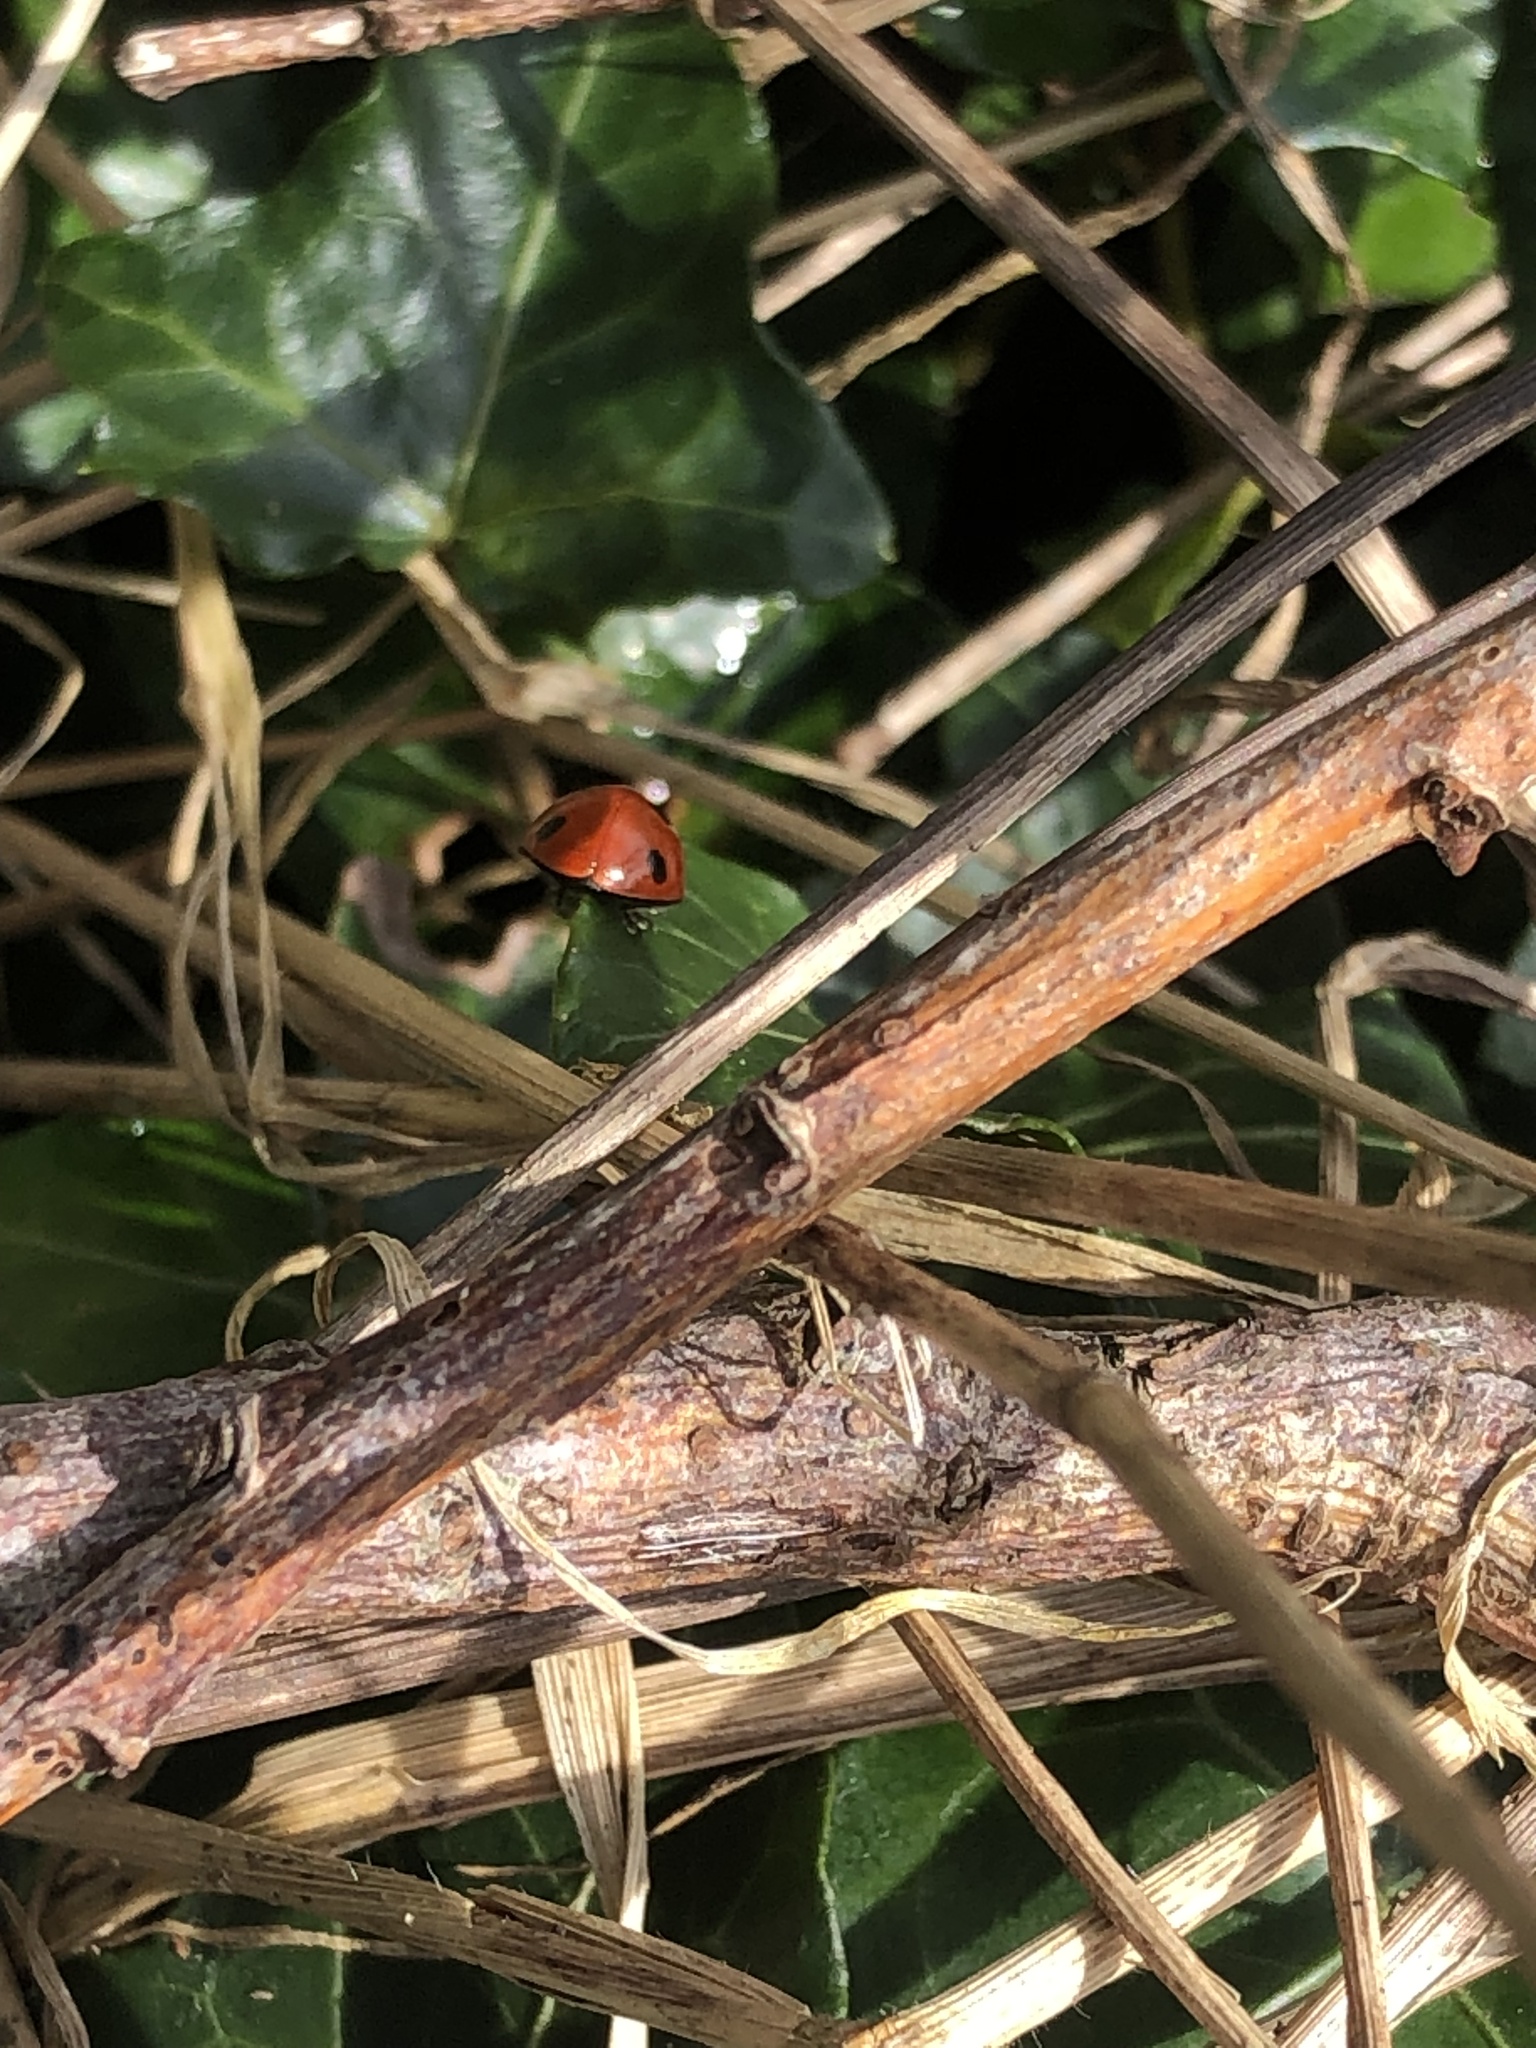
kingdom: Animalia
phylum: Arthropoda
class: Insecta
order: Coleoptera
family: Coccinellidae
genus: Coccinella
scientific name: Coccinella septempunctata
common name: Sevenspotted lady beetle
